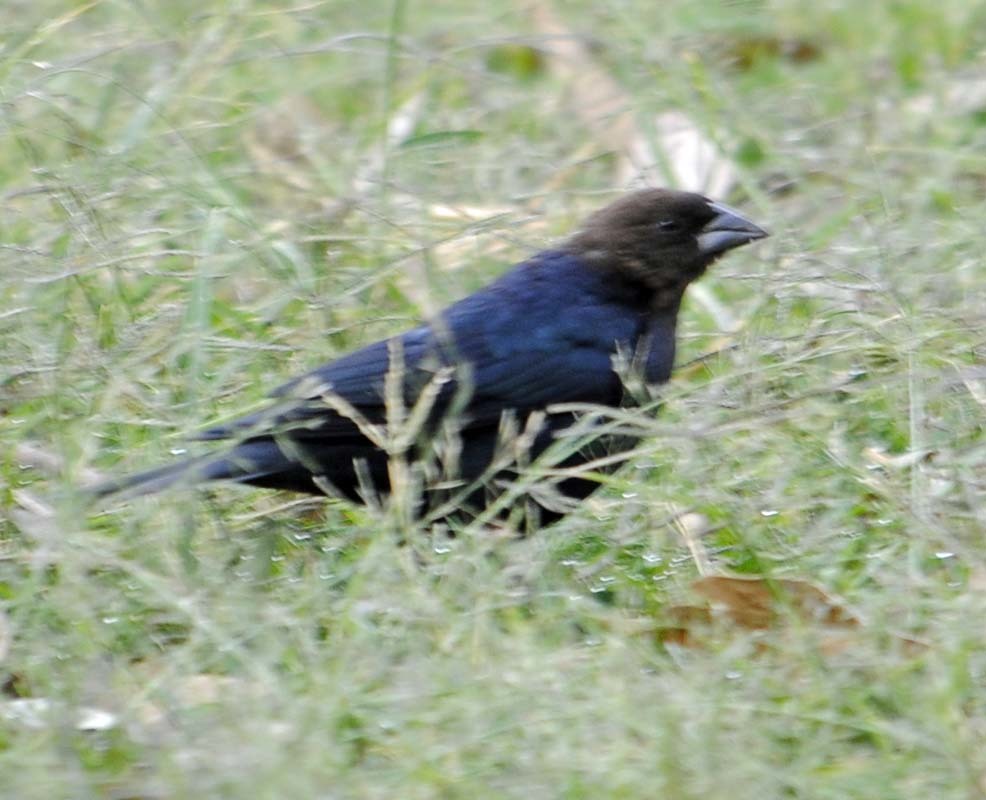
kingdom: Animalia
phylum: Chordata
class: Aves
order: Passeriformes
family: Icteridae
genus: Molothrus
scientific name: Molothrus ater
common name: Brown-headed cowbird
